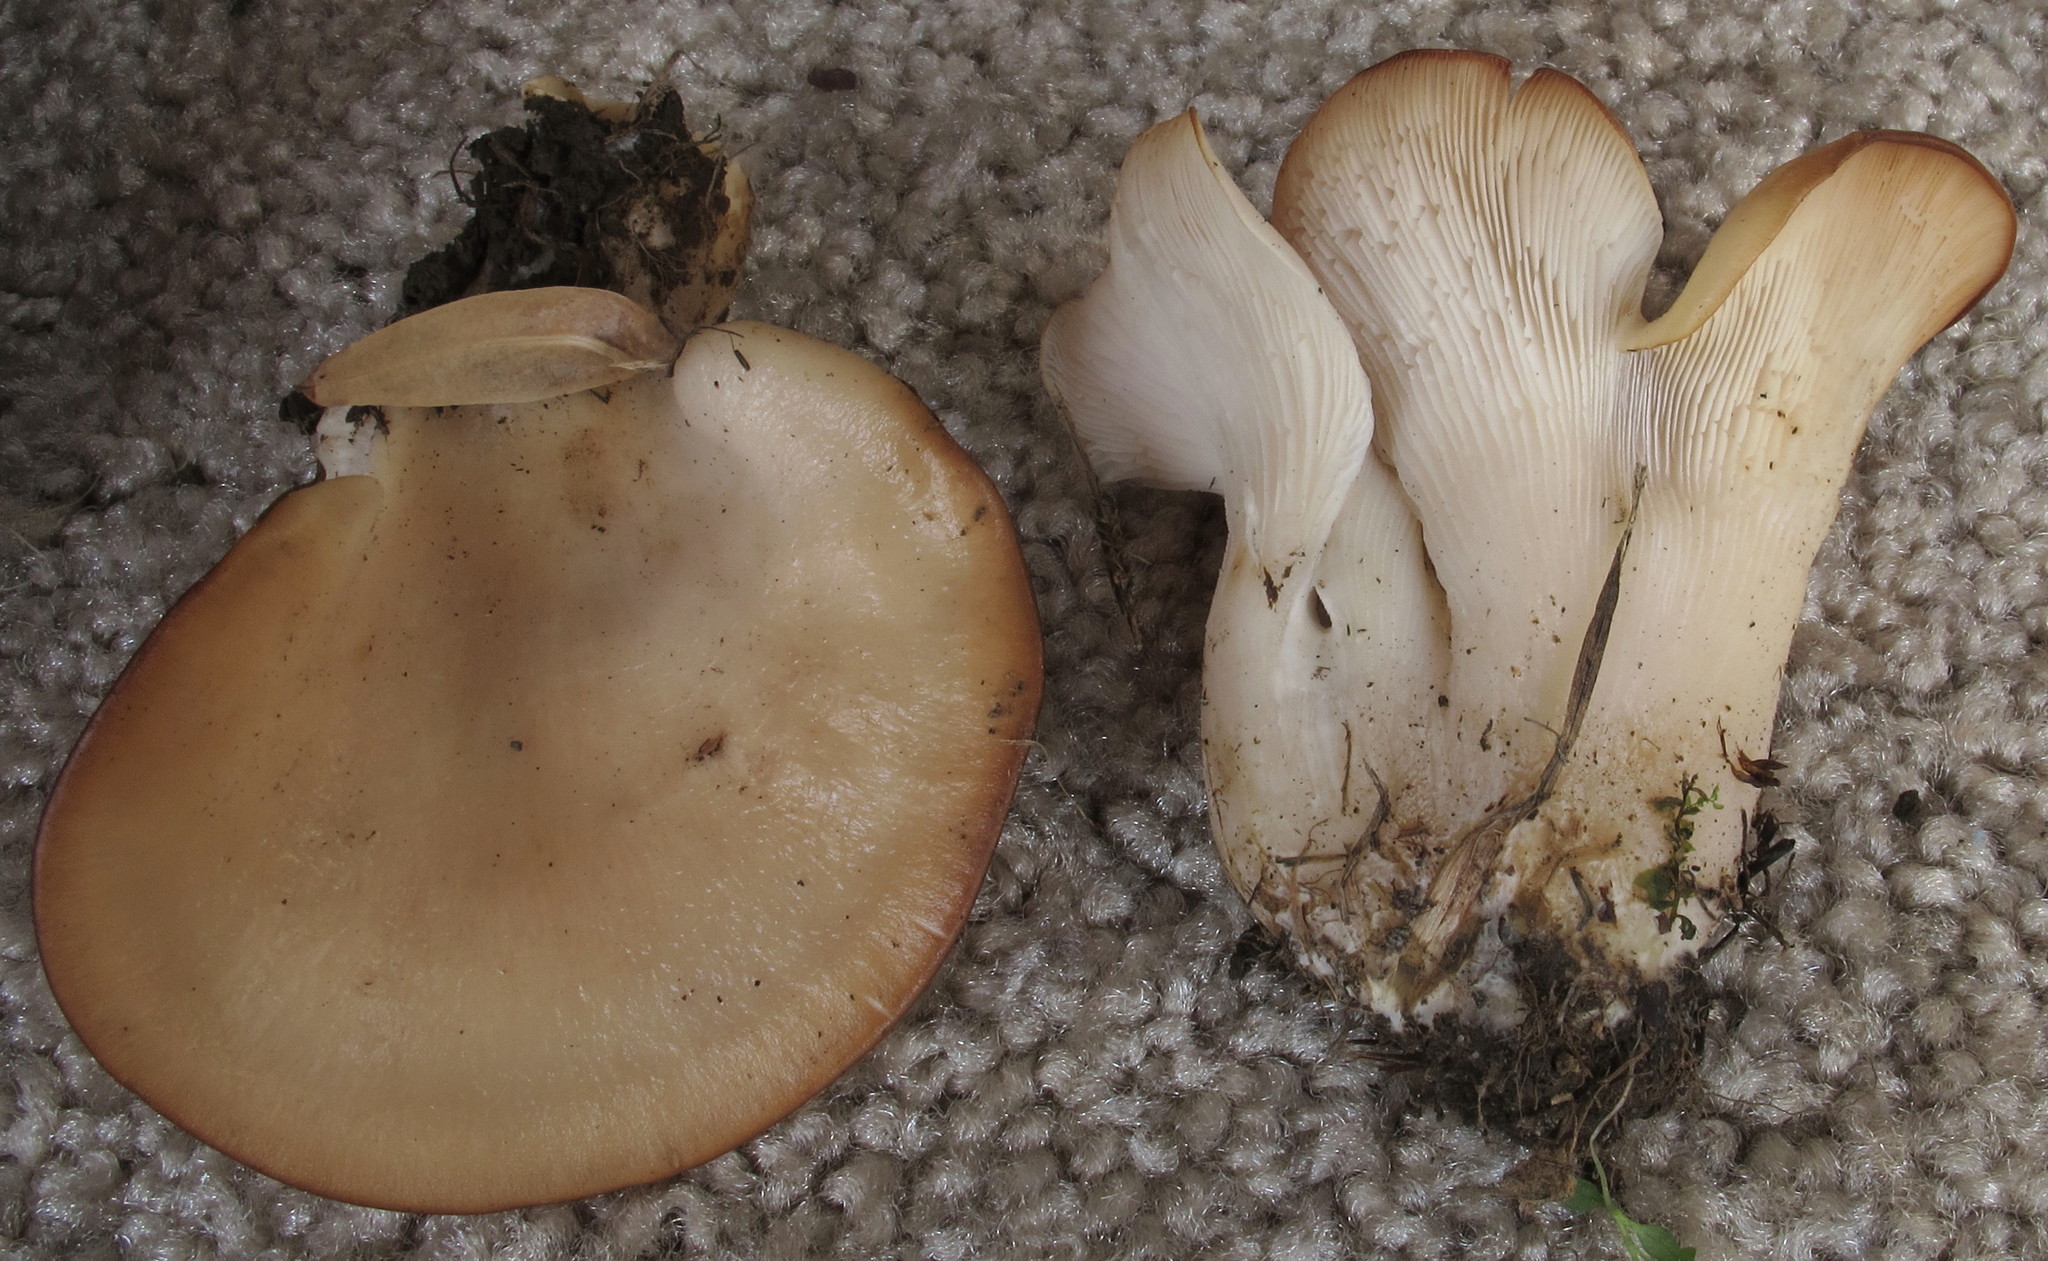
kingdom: Fungi
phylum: Basidiomycota
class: Agaricomycetes
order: Agaricales
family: Pleurotaceae
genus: Hohenbuehelia
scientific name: Hohenbuehelia petaloides
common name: Shoehorn oyster
